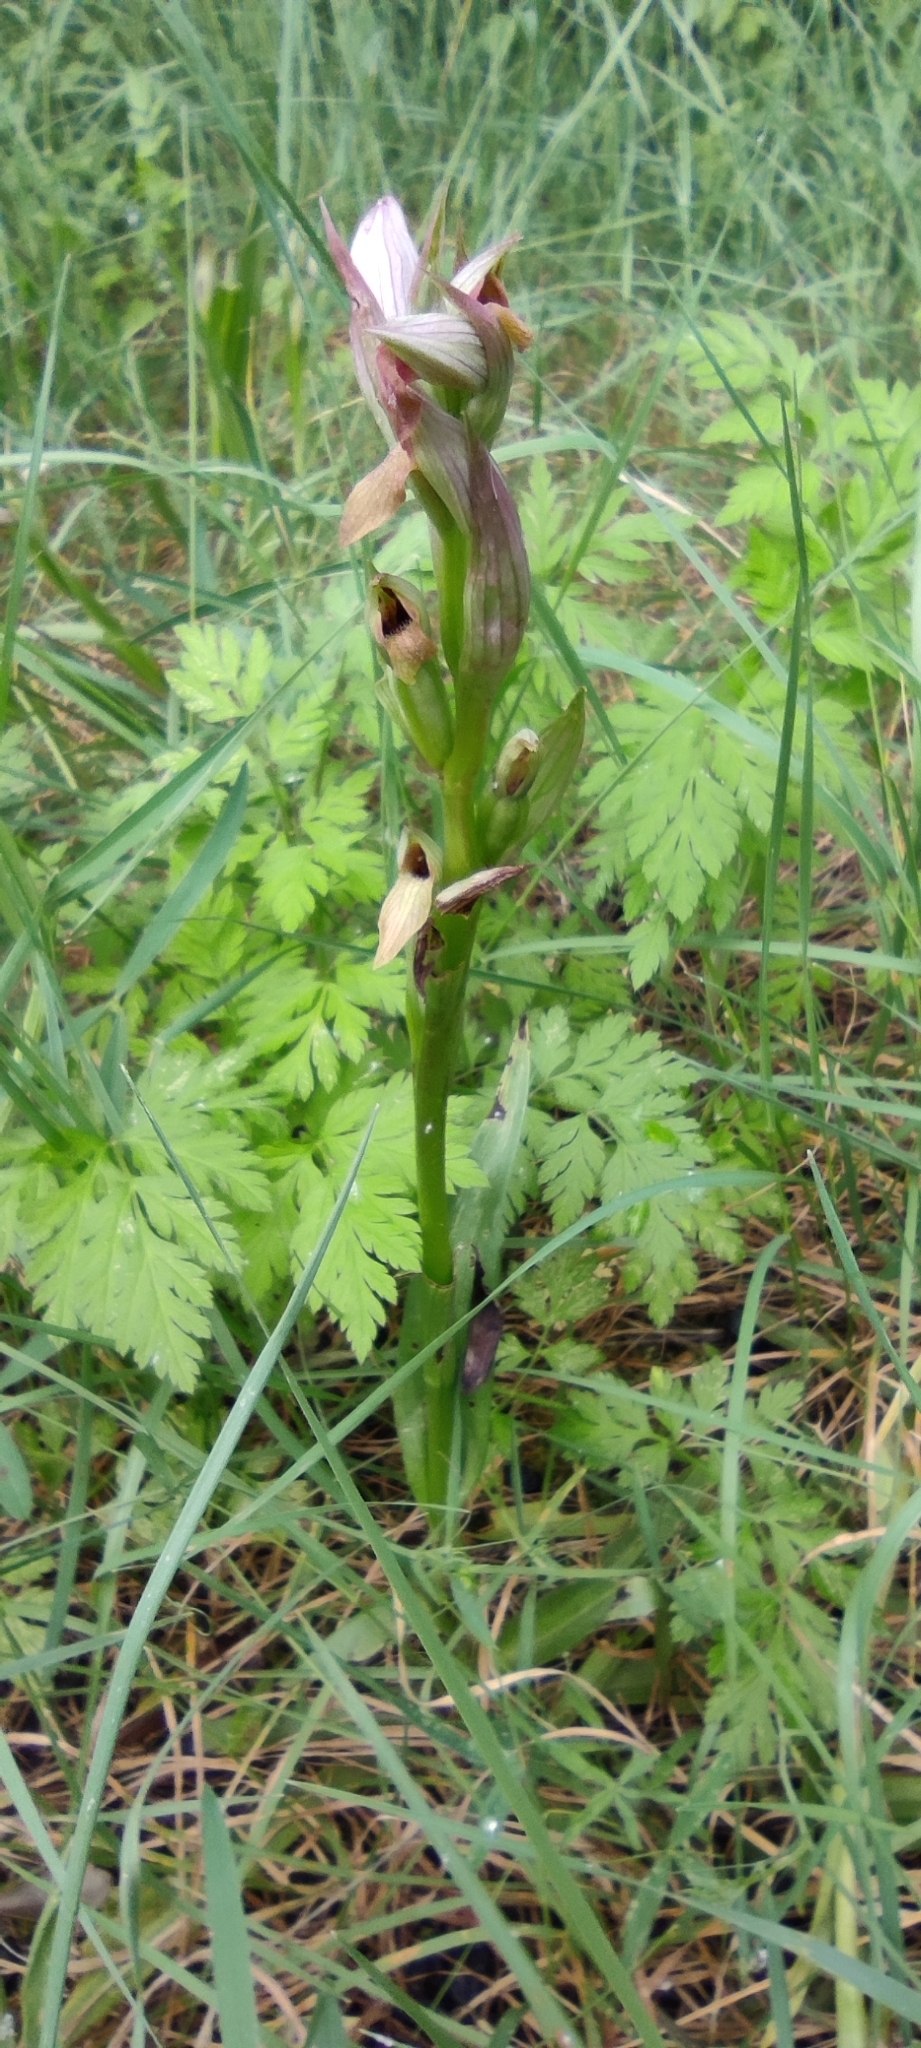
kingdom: Plantae
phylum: Tracheophyta
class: Liliopsida
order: Asparagales
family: Orchidaceae
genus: Serapias
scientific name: Serapias parviflora
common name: Small-flowered tongue-orchid
